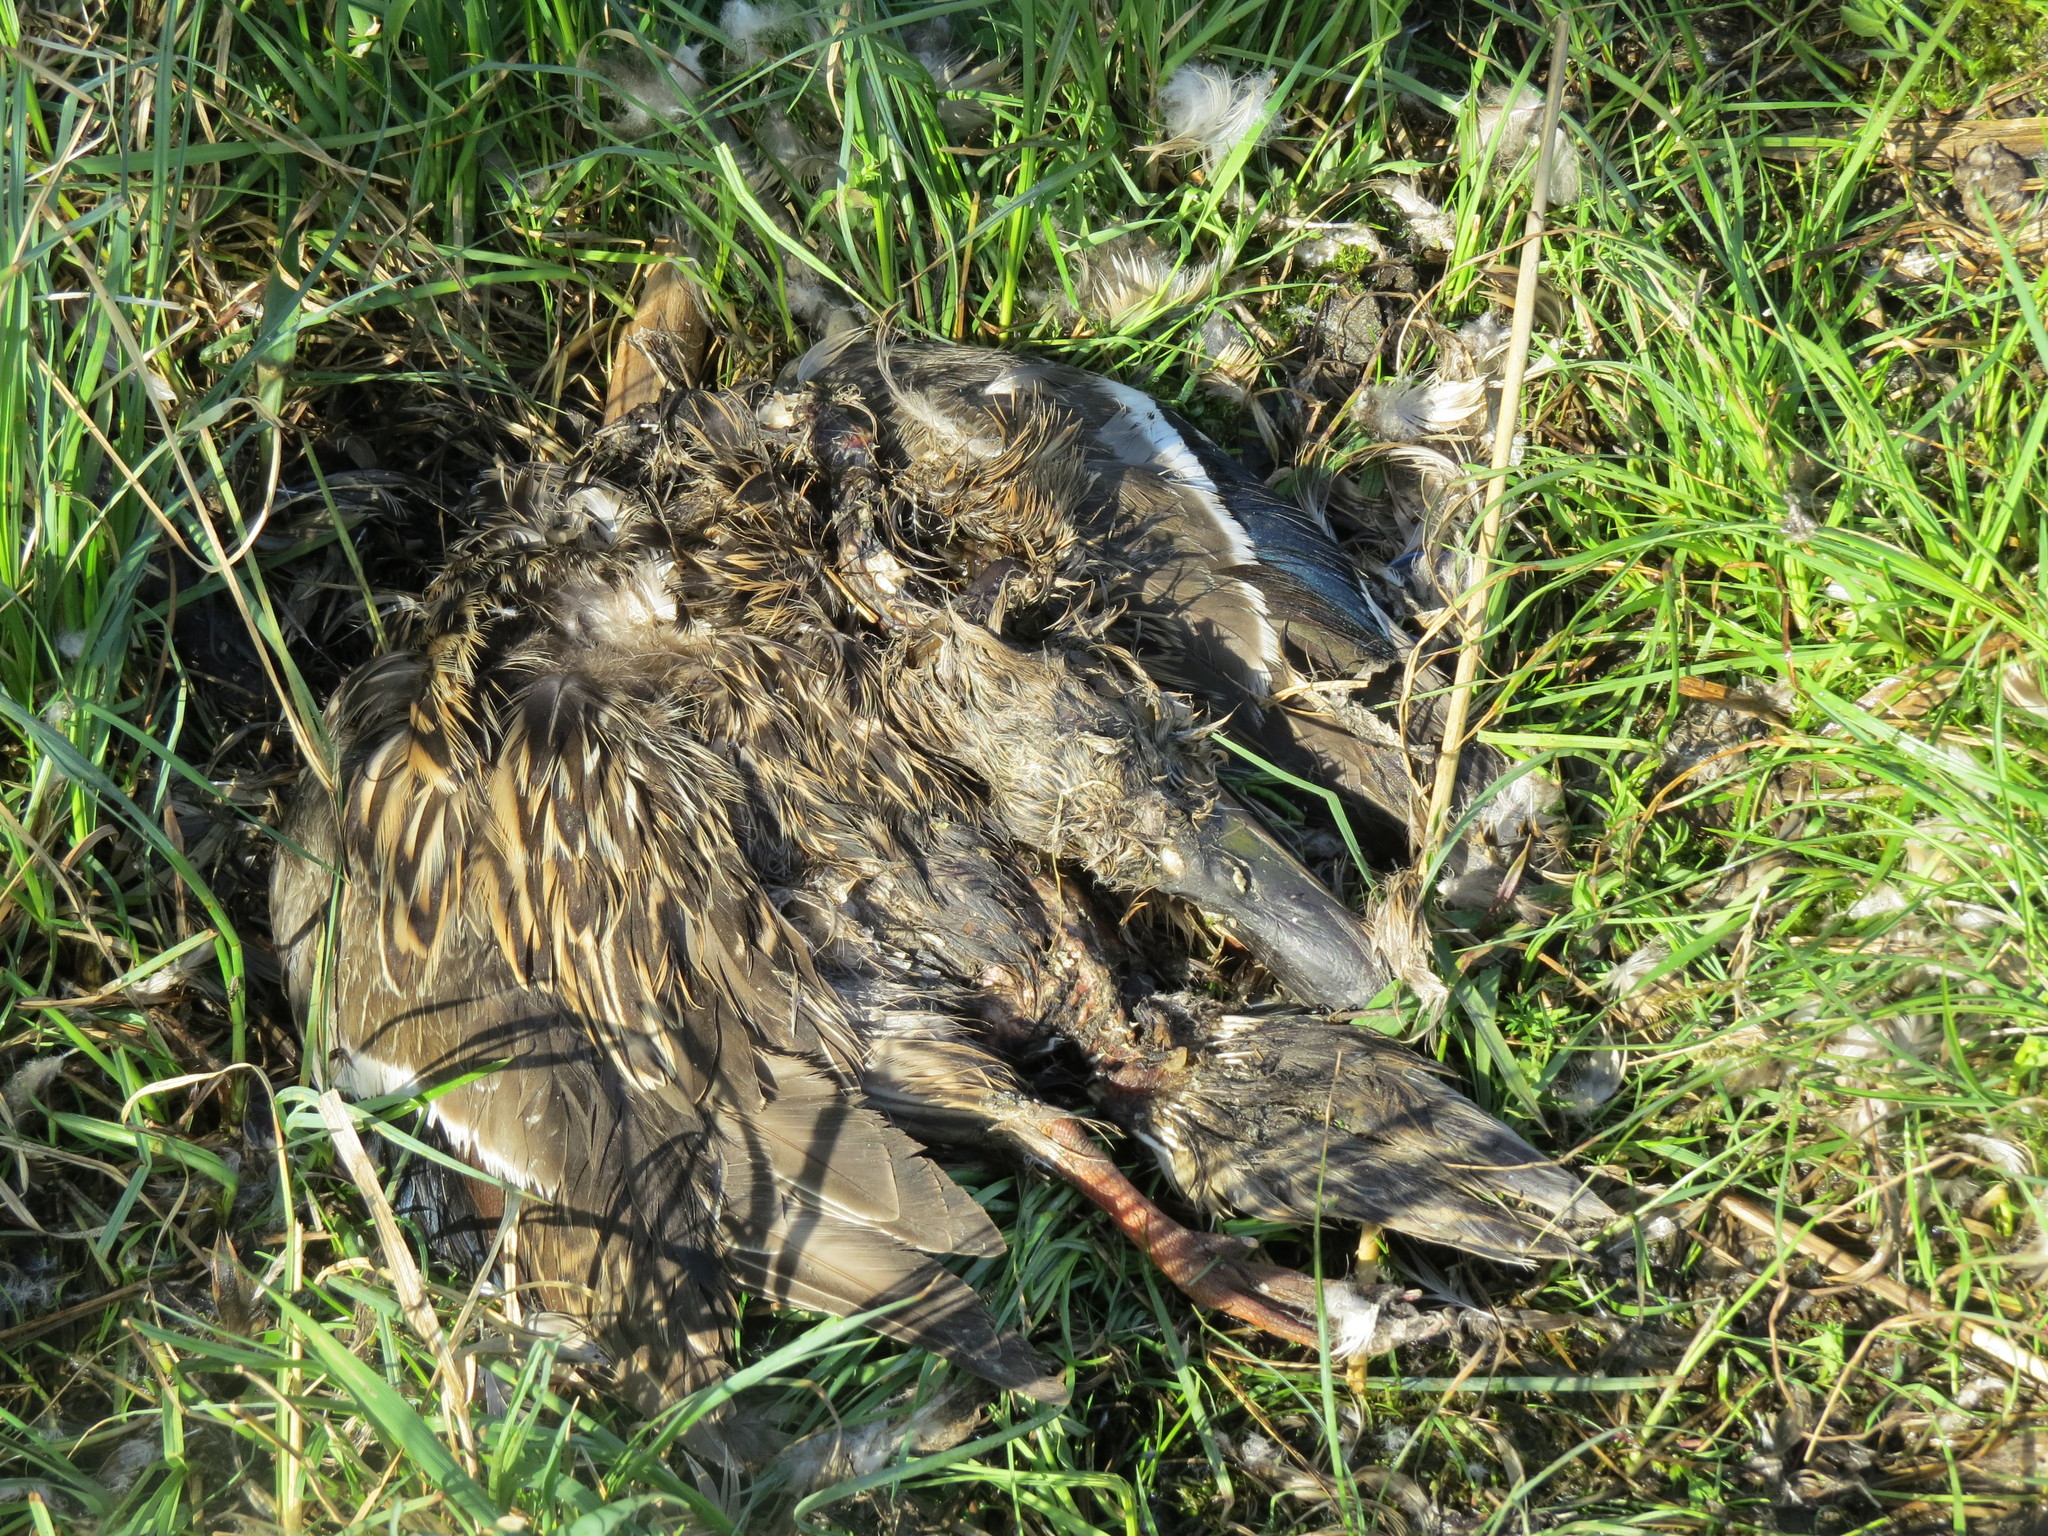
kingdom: Animalia
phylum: Chordata
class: Aves
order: Anseriformes
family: Anatidae
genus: Anas
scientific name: Anas platyrhynchos
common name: Mallard
